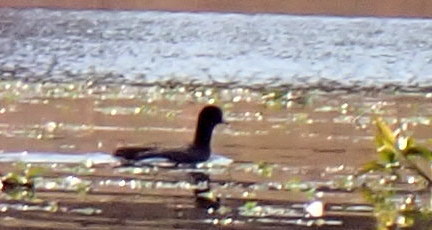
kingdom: Animalia
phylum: Chordata
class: Aves
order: Gruiformes
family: Rallidae
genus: Fulica
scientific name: Fulica americana
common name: American coot
